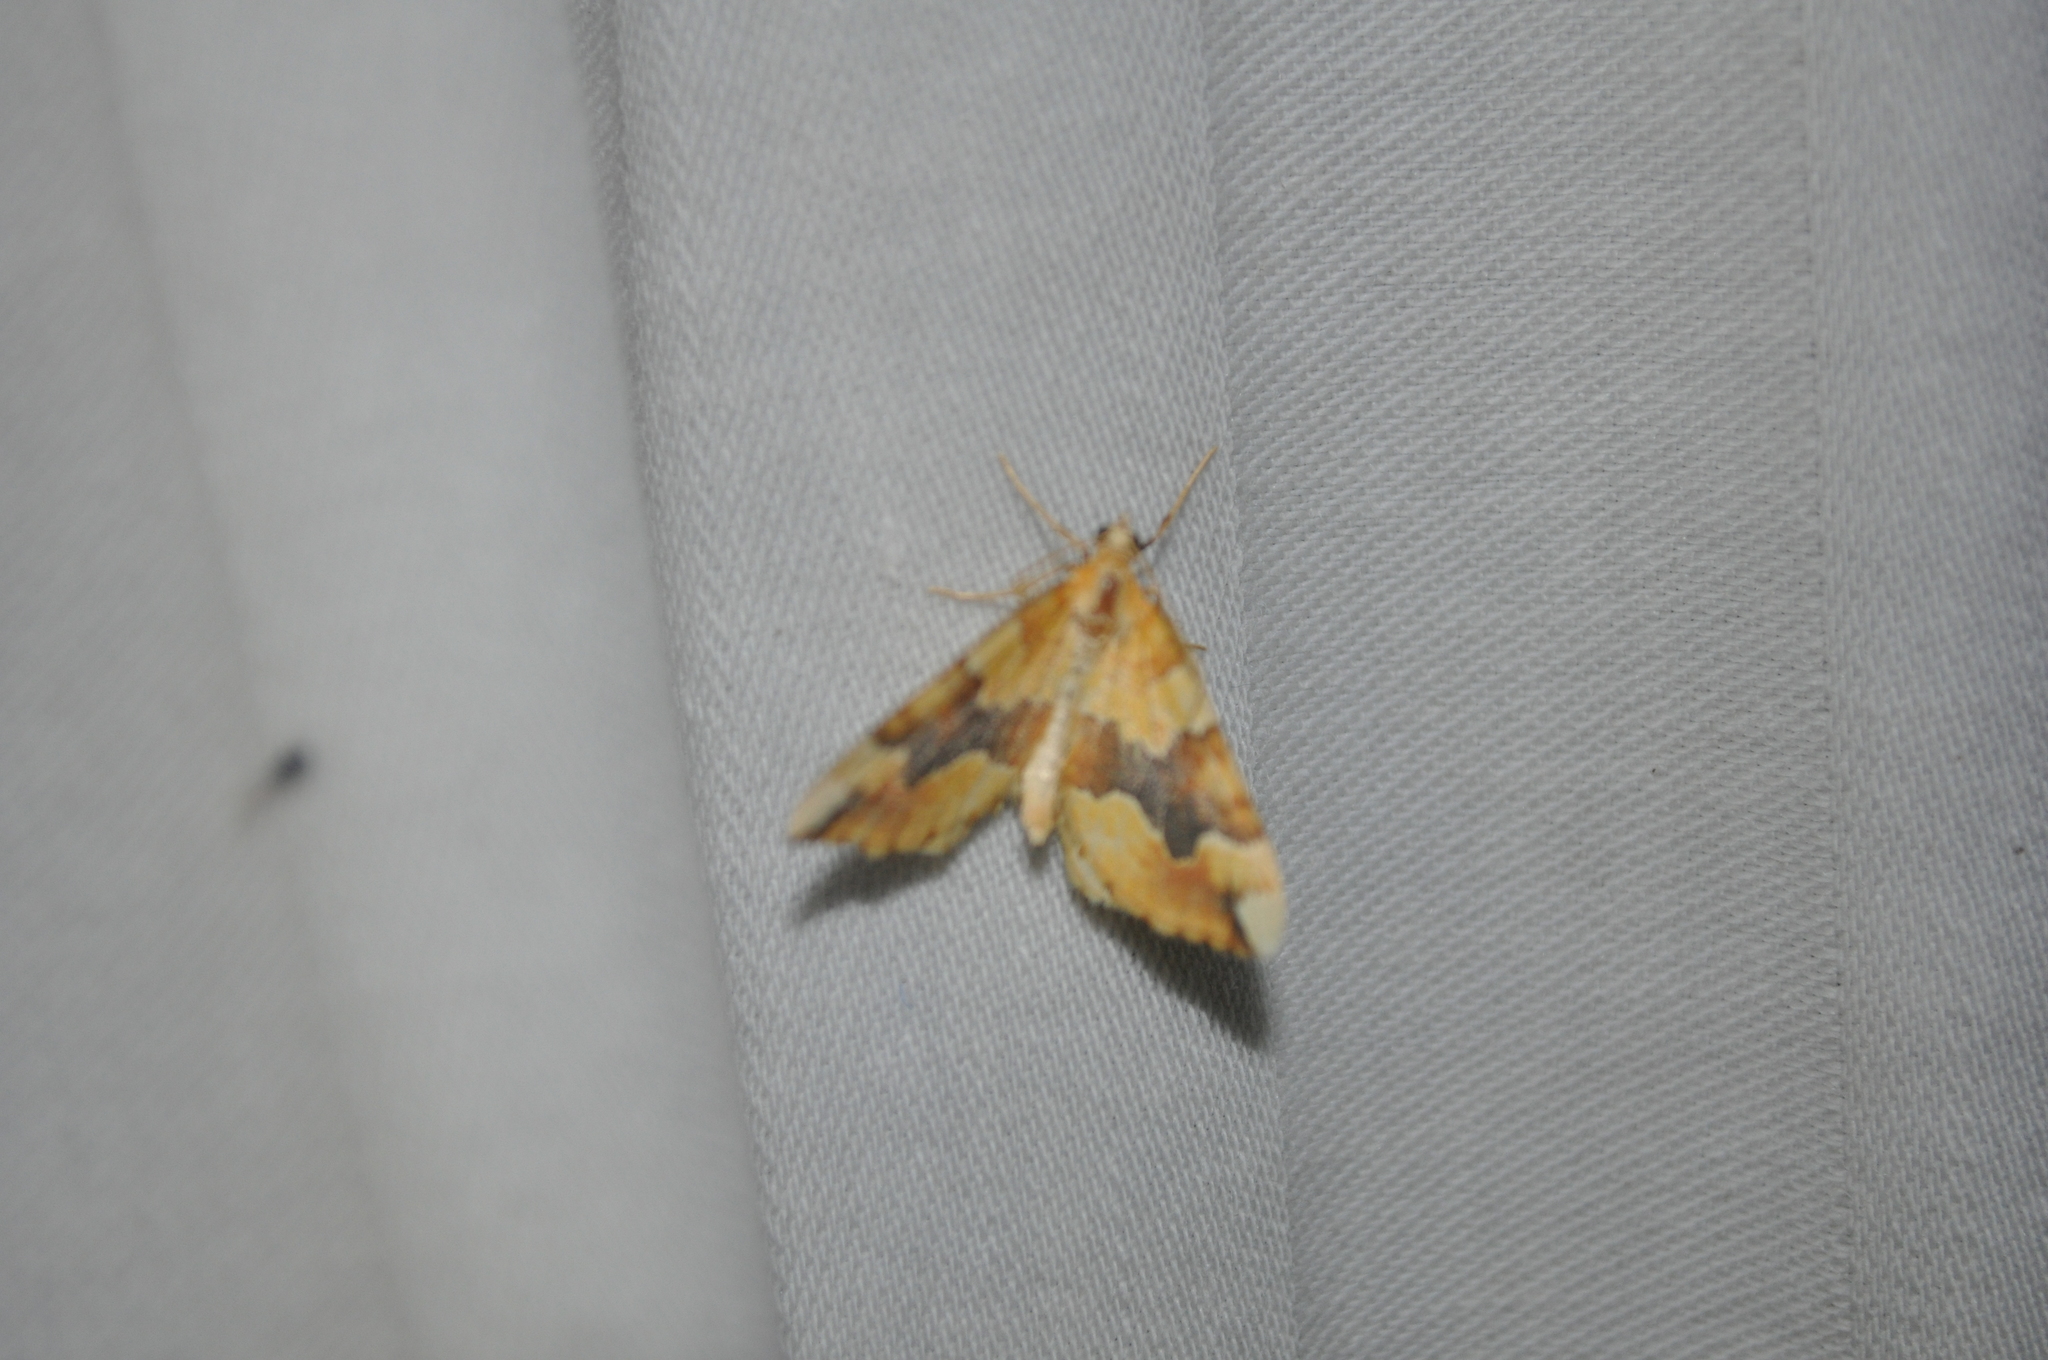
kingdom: Animalia
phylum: Arthropoda
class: Insecta
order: Lepidoptera
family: Geometridae
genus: Cidaria
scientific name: Cidaria fulvata
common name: Barred yellow
